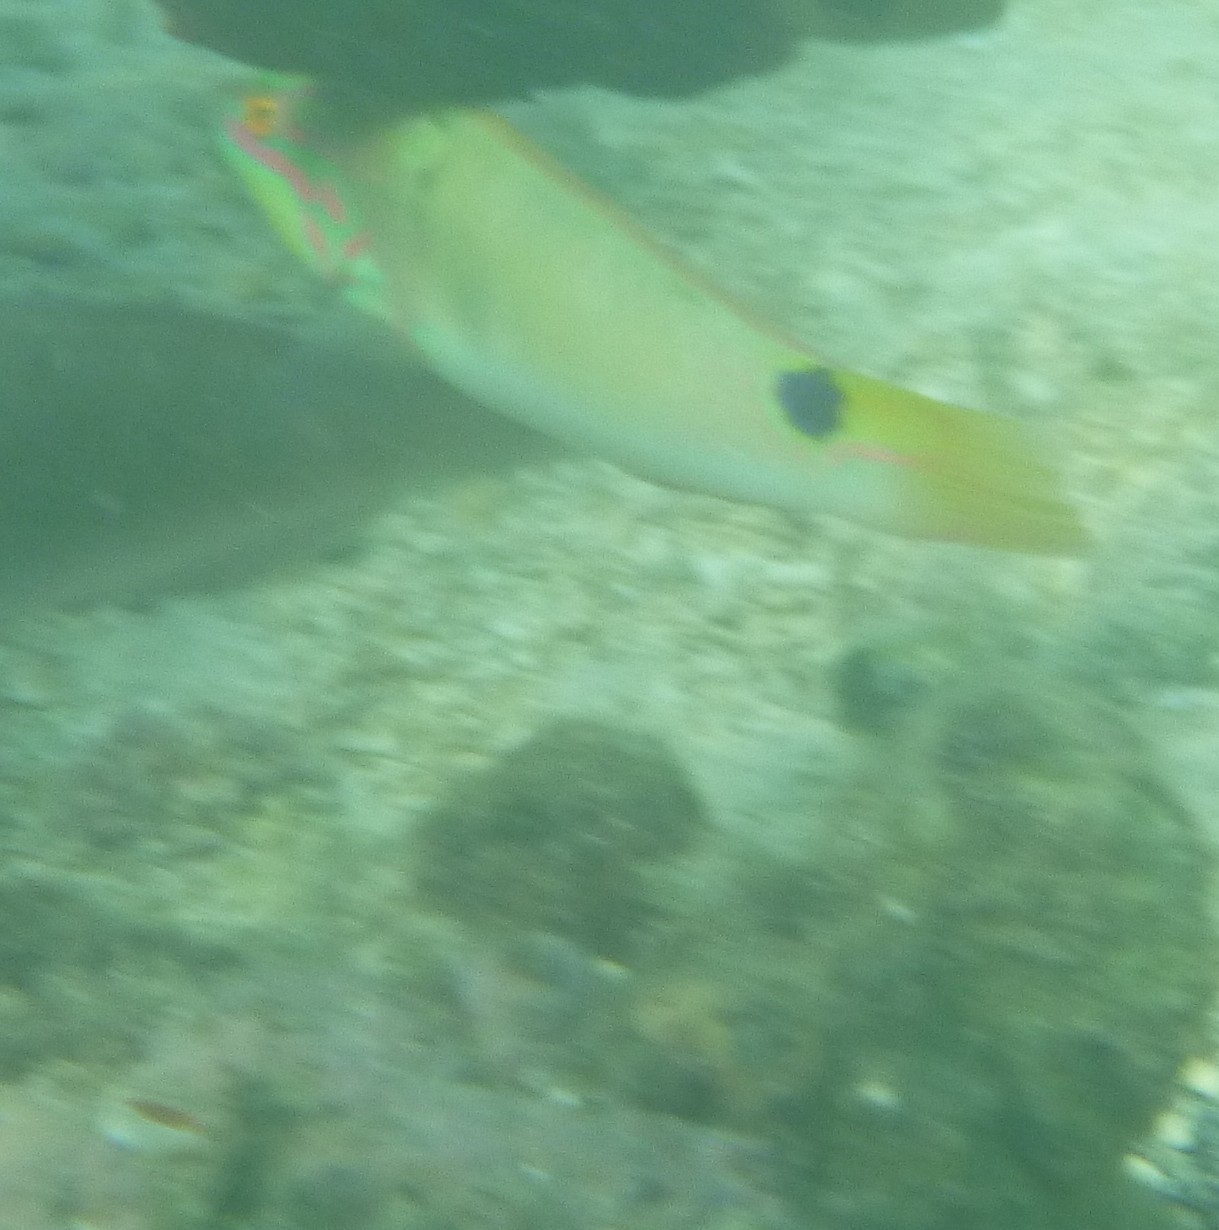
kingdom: Animalia
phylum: Chordata
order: Perciformes
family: Labridae
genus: Halichoeres
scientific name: Halichoeres trimaculatus
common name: Three-spot wrasse
